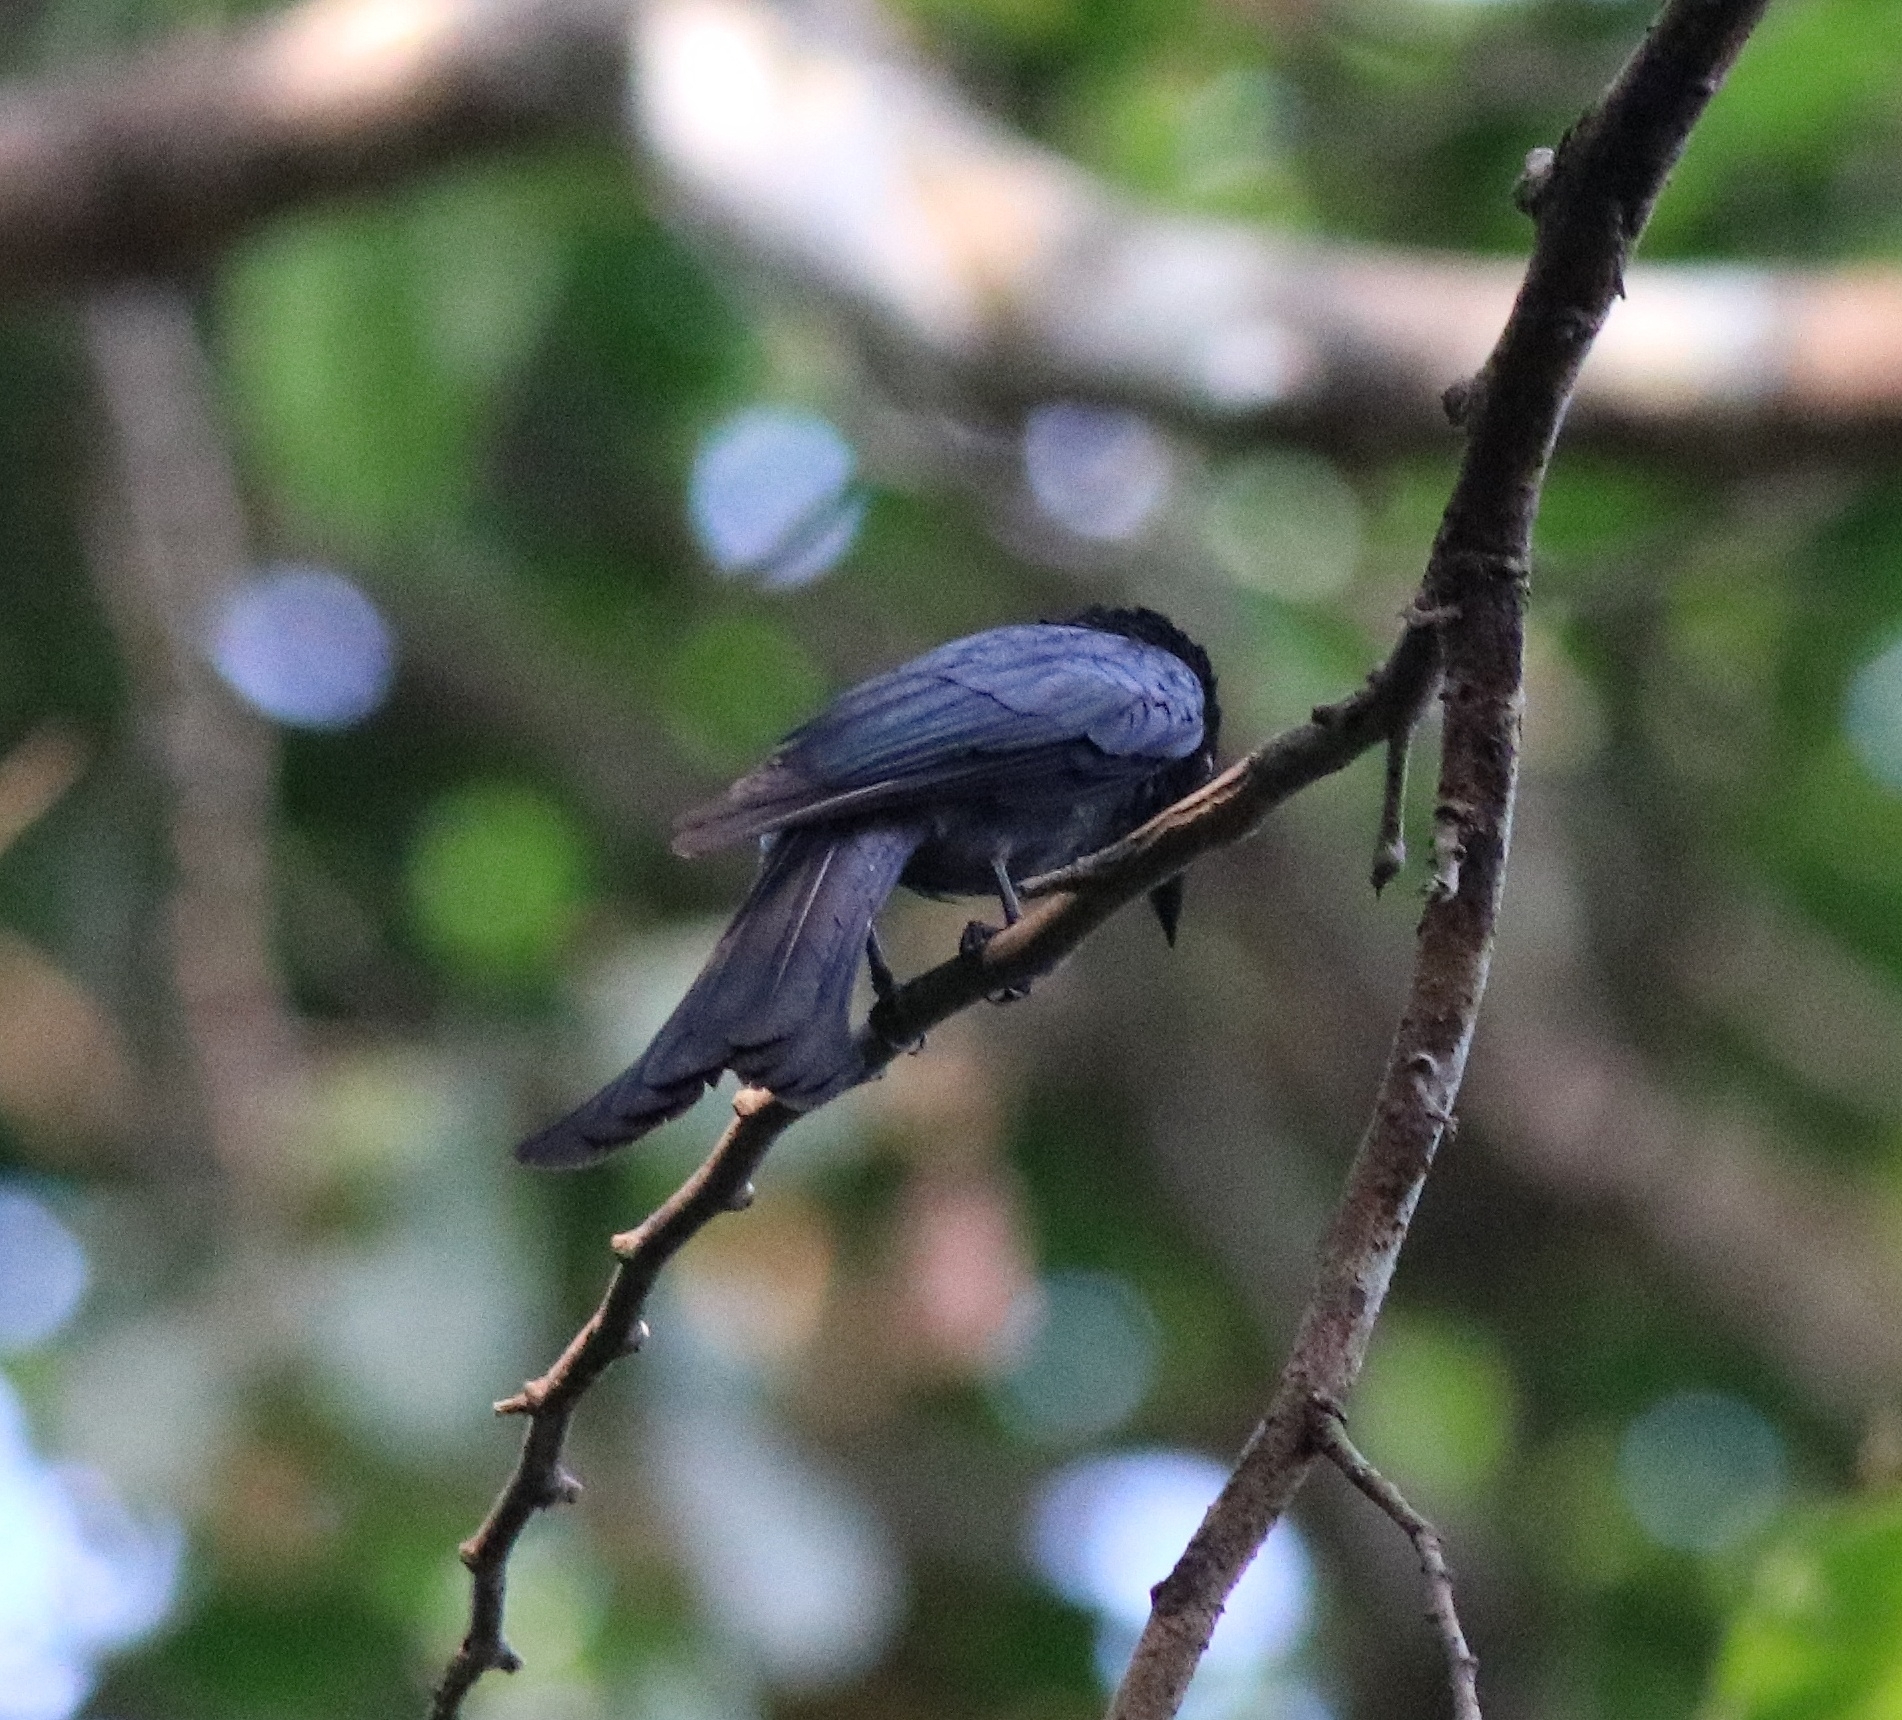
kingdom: Animalia
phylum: Chordata
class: Aves
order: Passeriformes
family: Dicruridae
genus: Dicrurus
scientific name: Dicrurus aeneus
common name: Bronzed drongo
